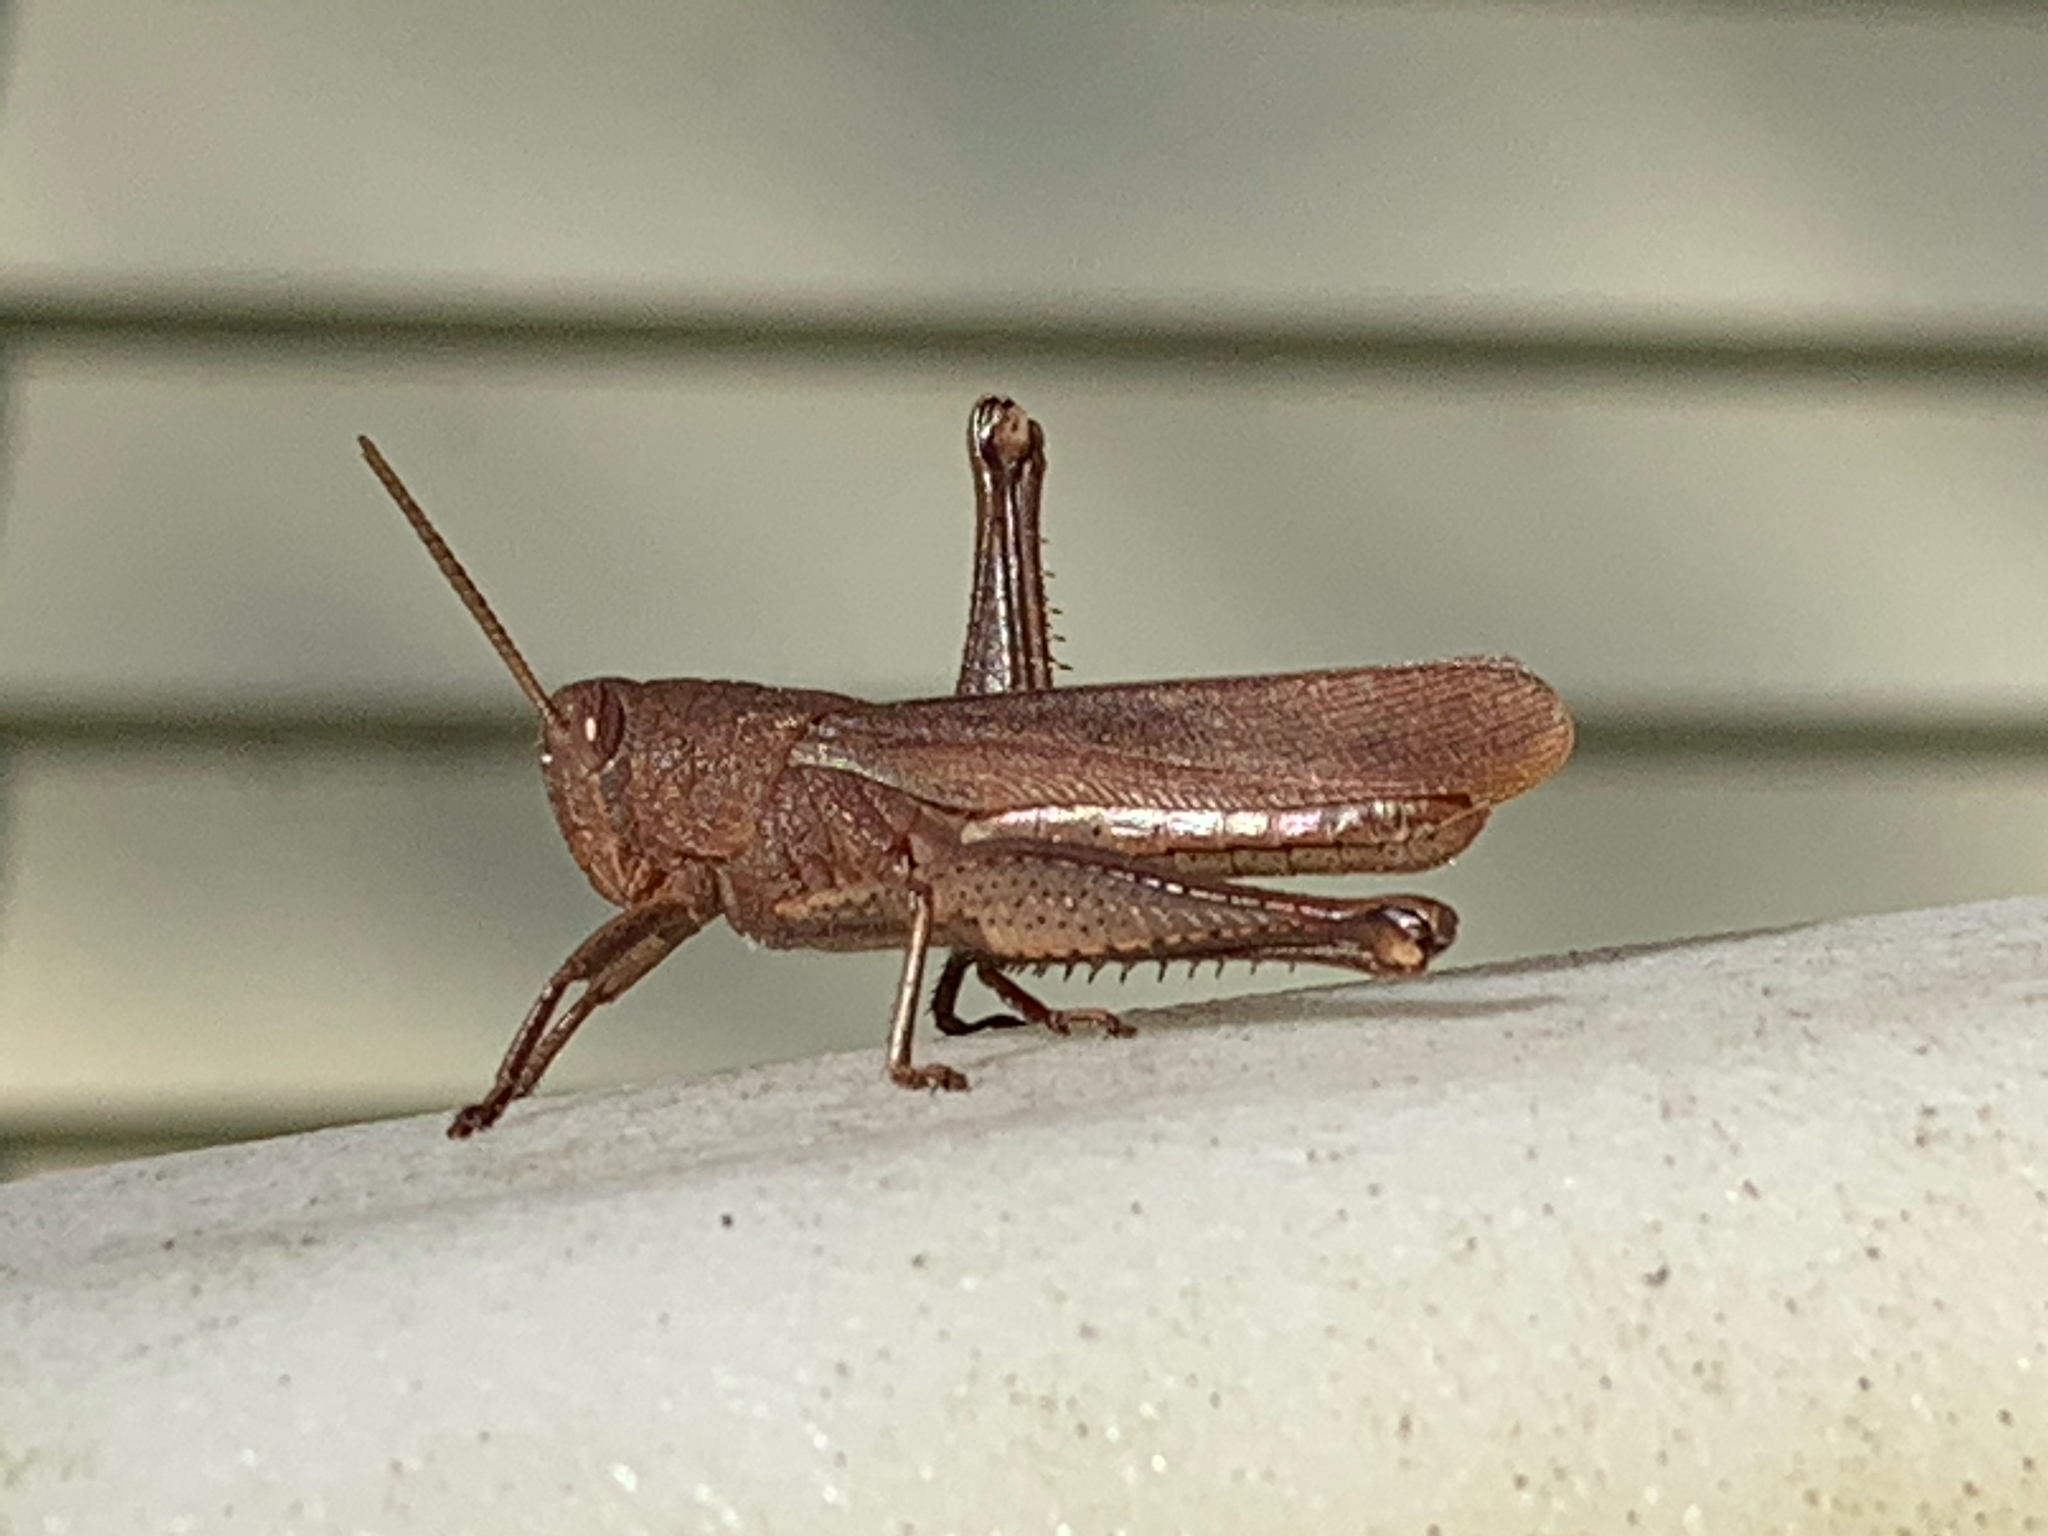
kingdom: Animalia
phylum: Arthropoda
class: Insecta
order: Orthoptera
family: Acrididae
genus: Schistocerca
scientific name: Schistocerca damnifica
